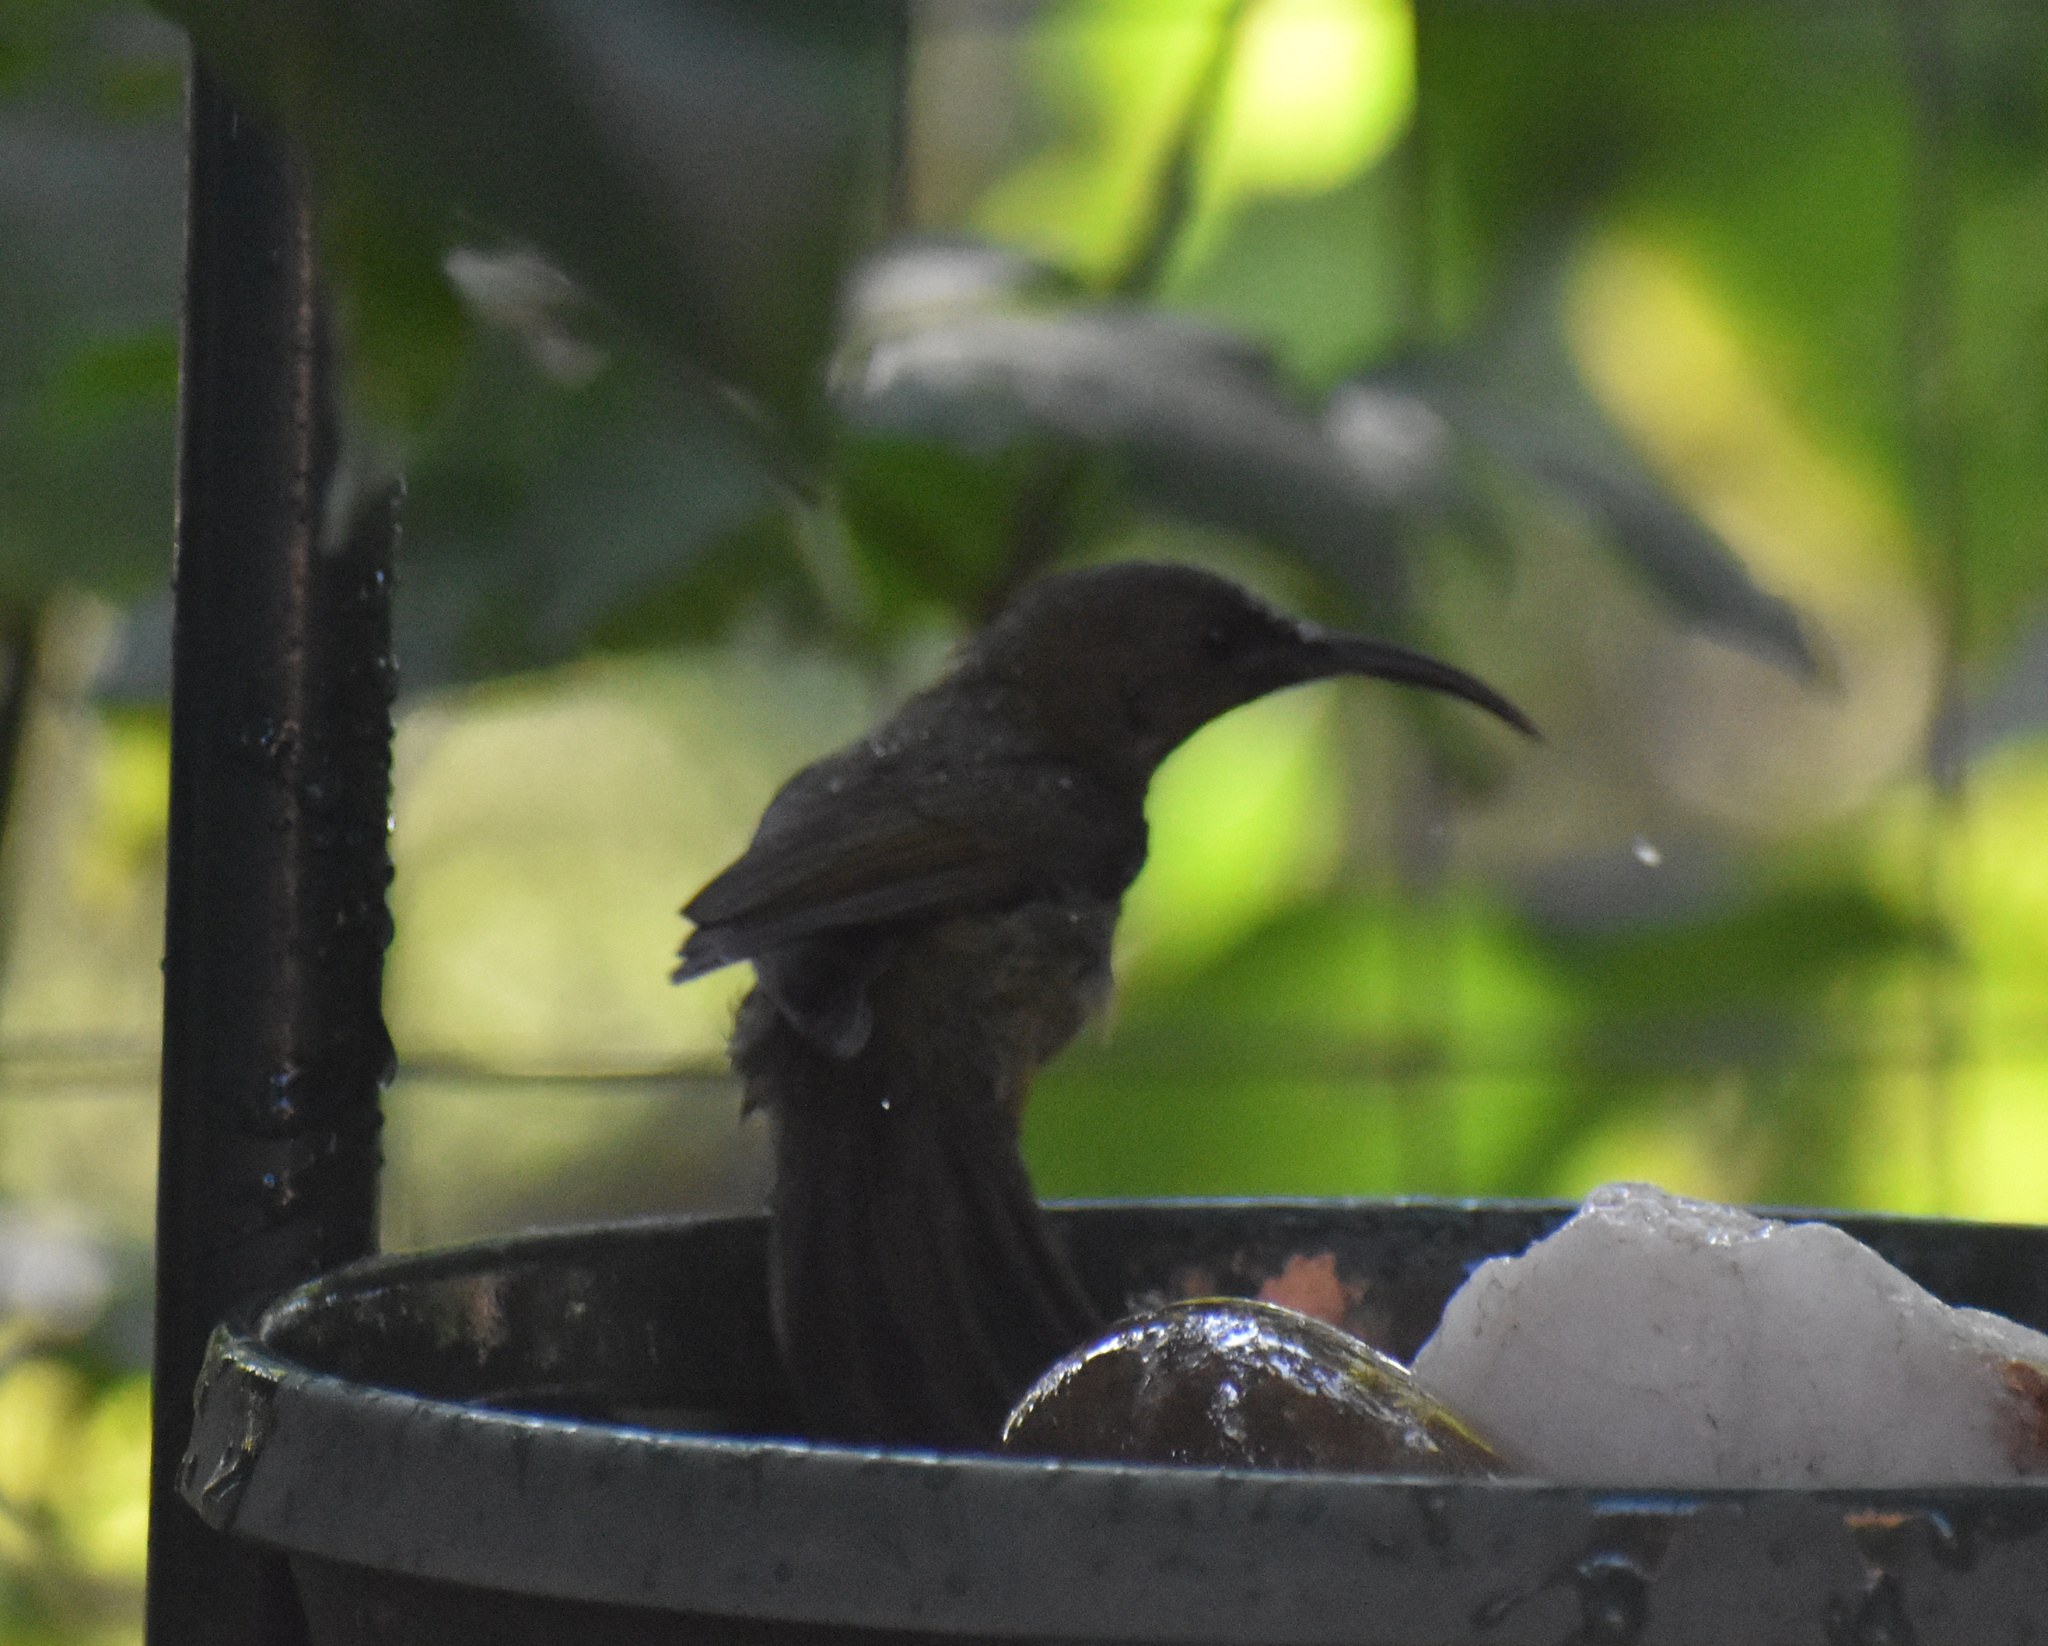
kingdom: Animalia
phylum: Chordata
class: Aves
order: Passeriformes
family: Nectariniidae
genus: Cyanomitra
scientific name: Cyanomitra olivacea
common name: Olive sunbird
